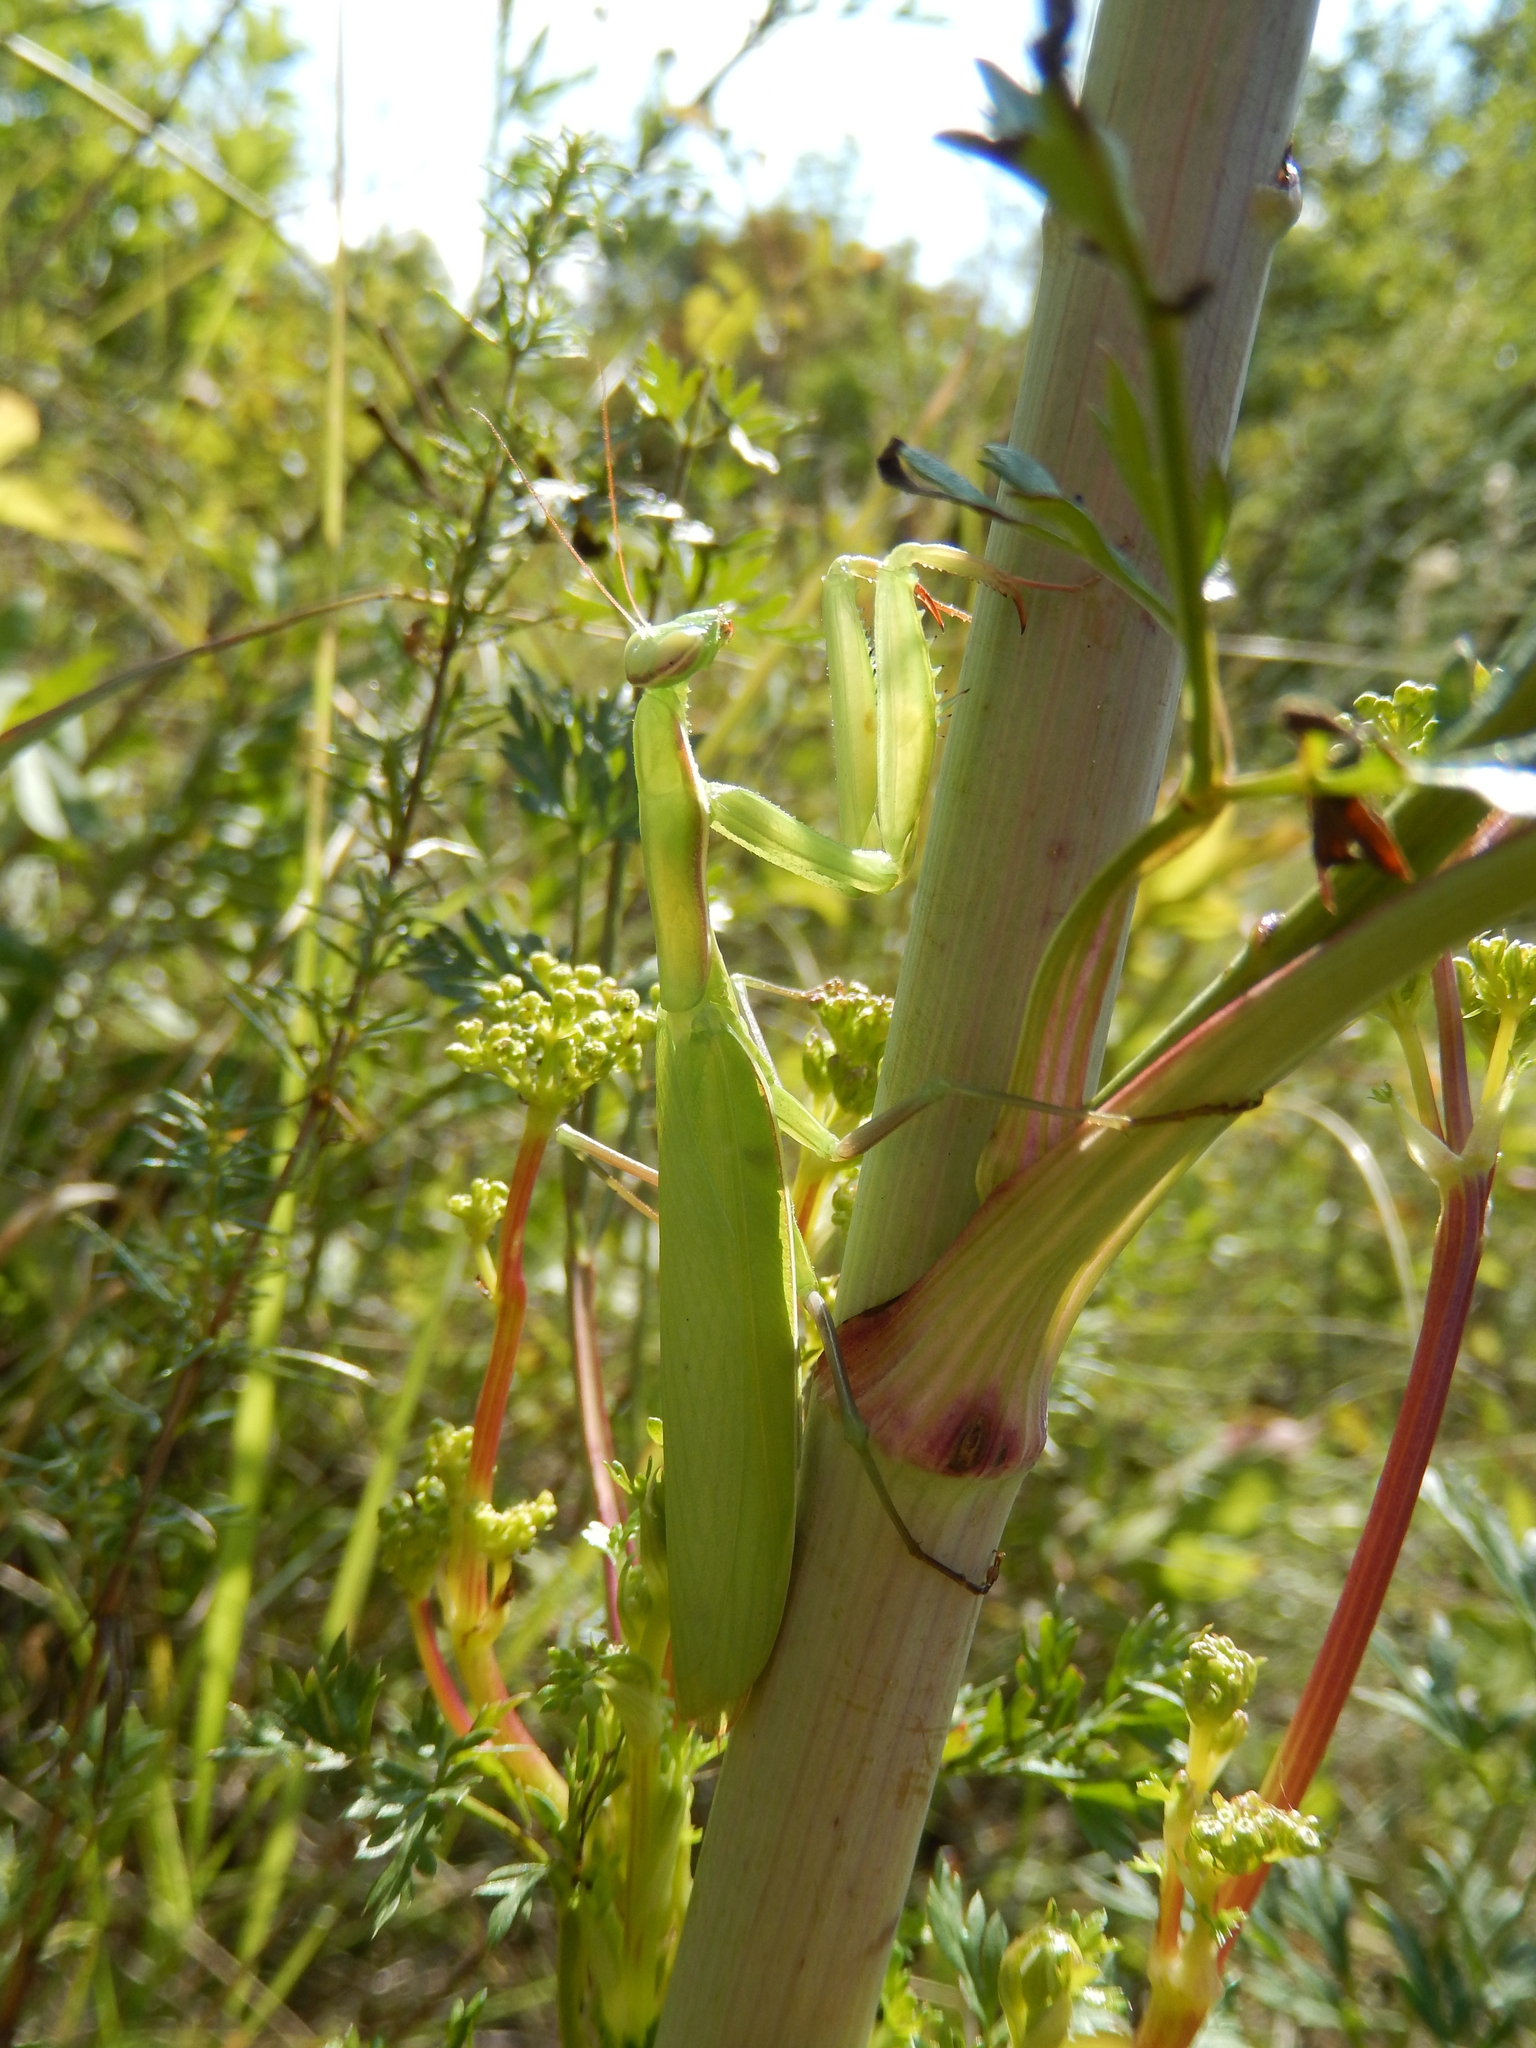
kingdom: Animalia
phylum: Arthropoda
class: Insecta
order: Mantodea
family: Mantidae
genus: Mantis
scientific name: Mantis religiosa
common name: Praying mantis
